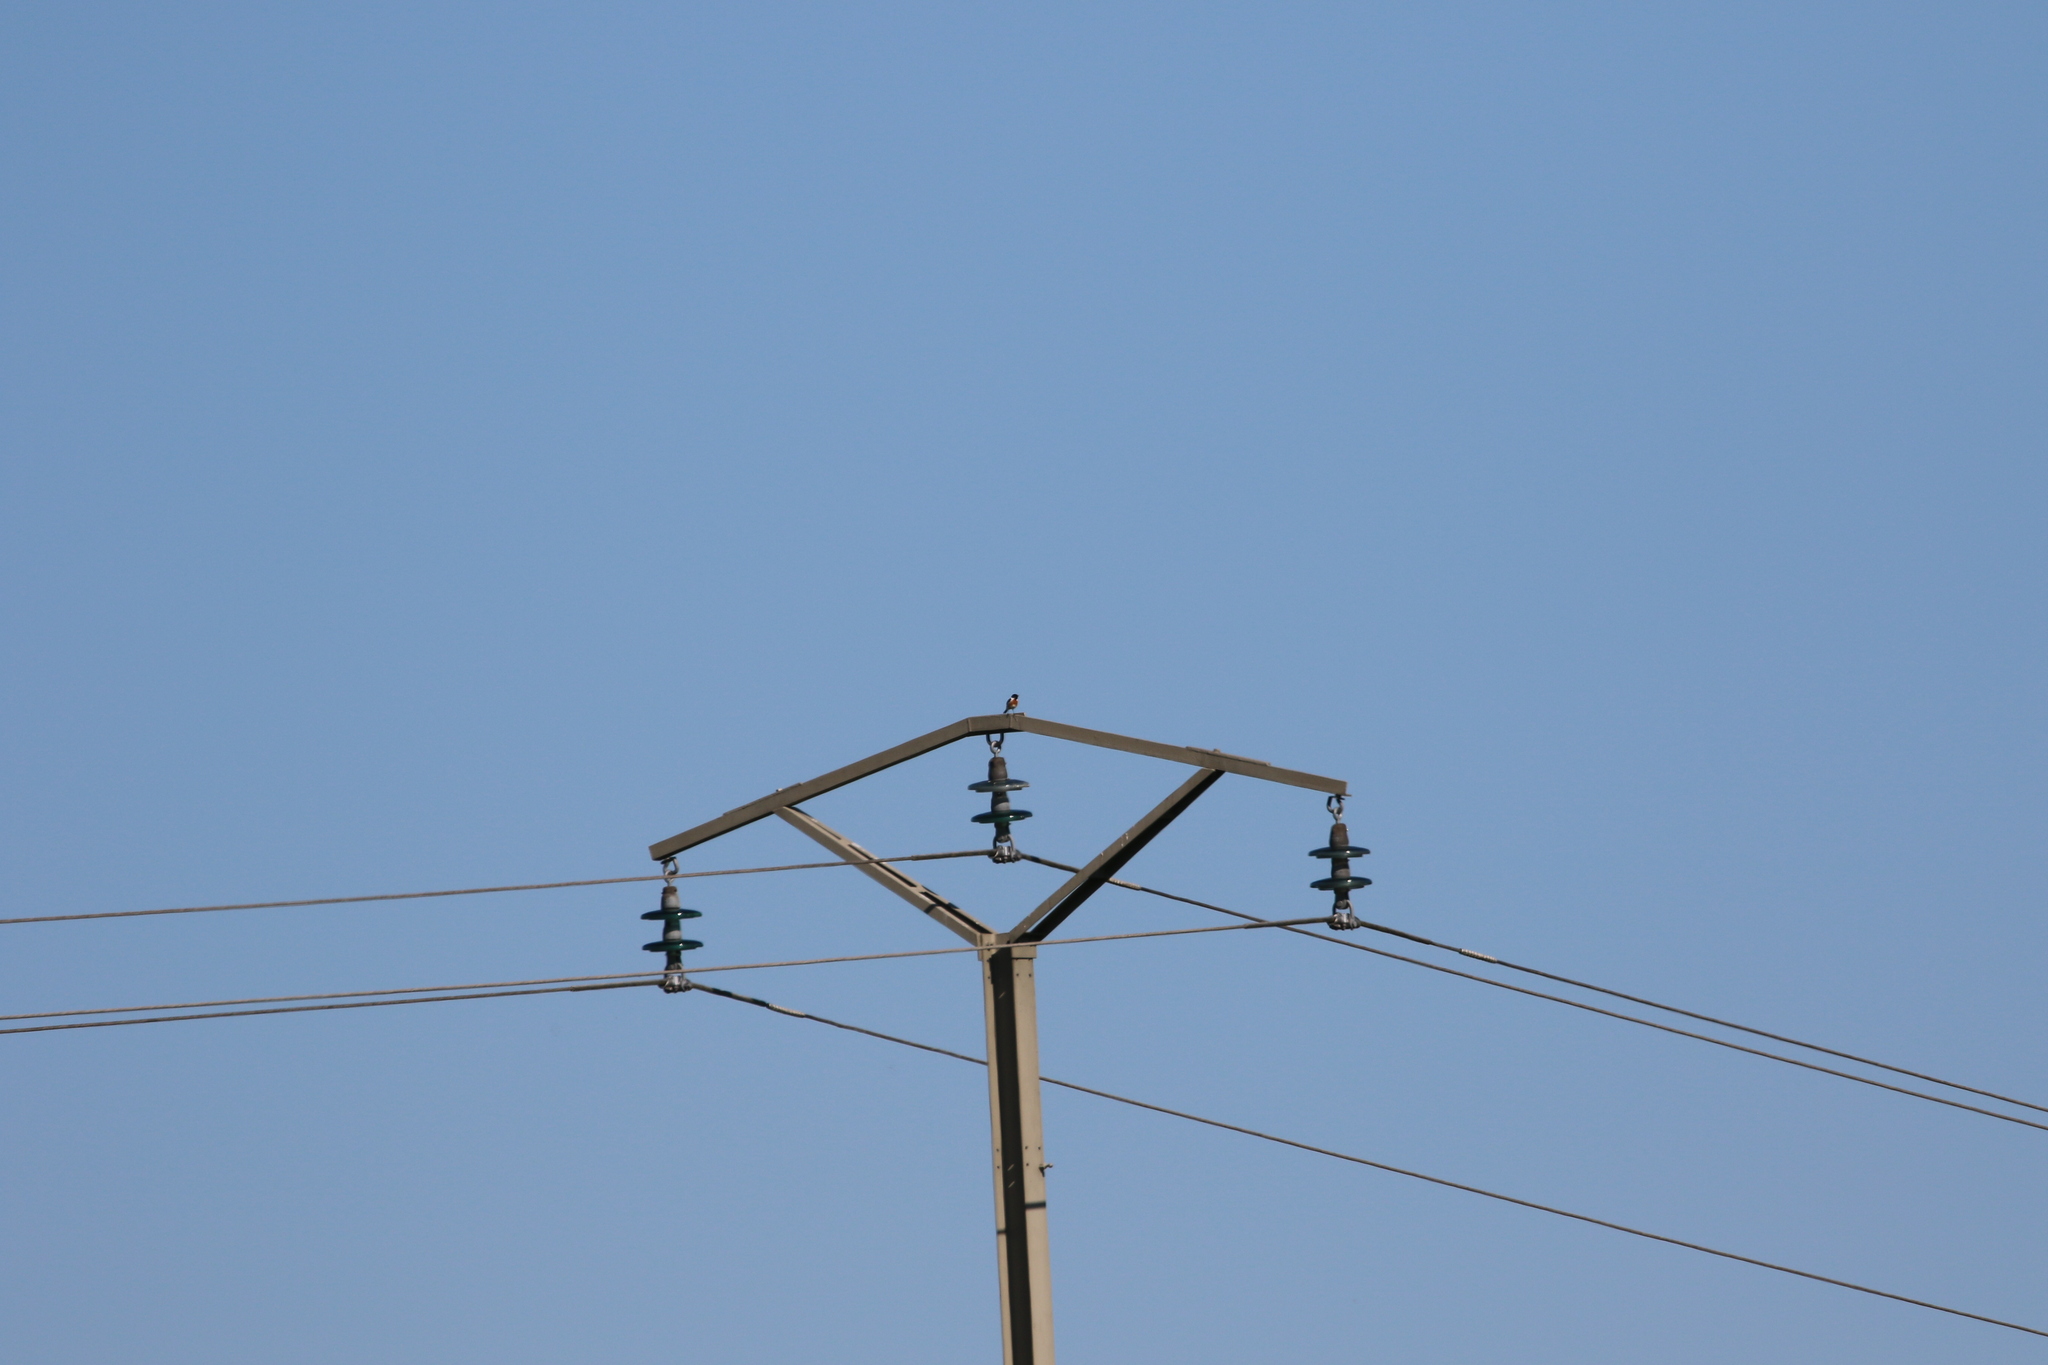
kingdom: Animalia
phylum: Chordata
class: Aves
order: Passeriformes
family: Muscicapidae
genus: Saxicola
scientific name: Saxicola rubicola
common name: European stonechat
